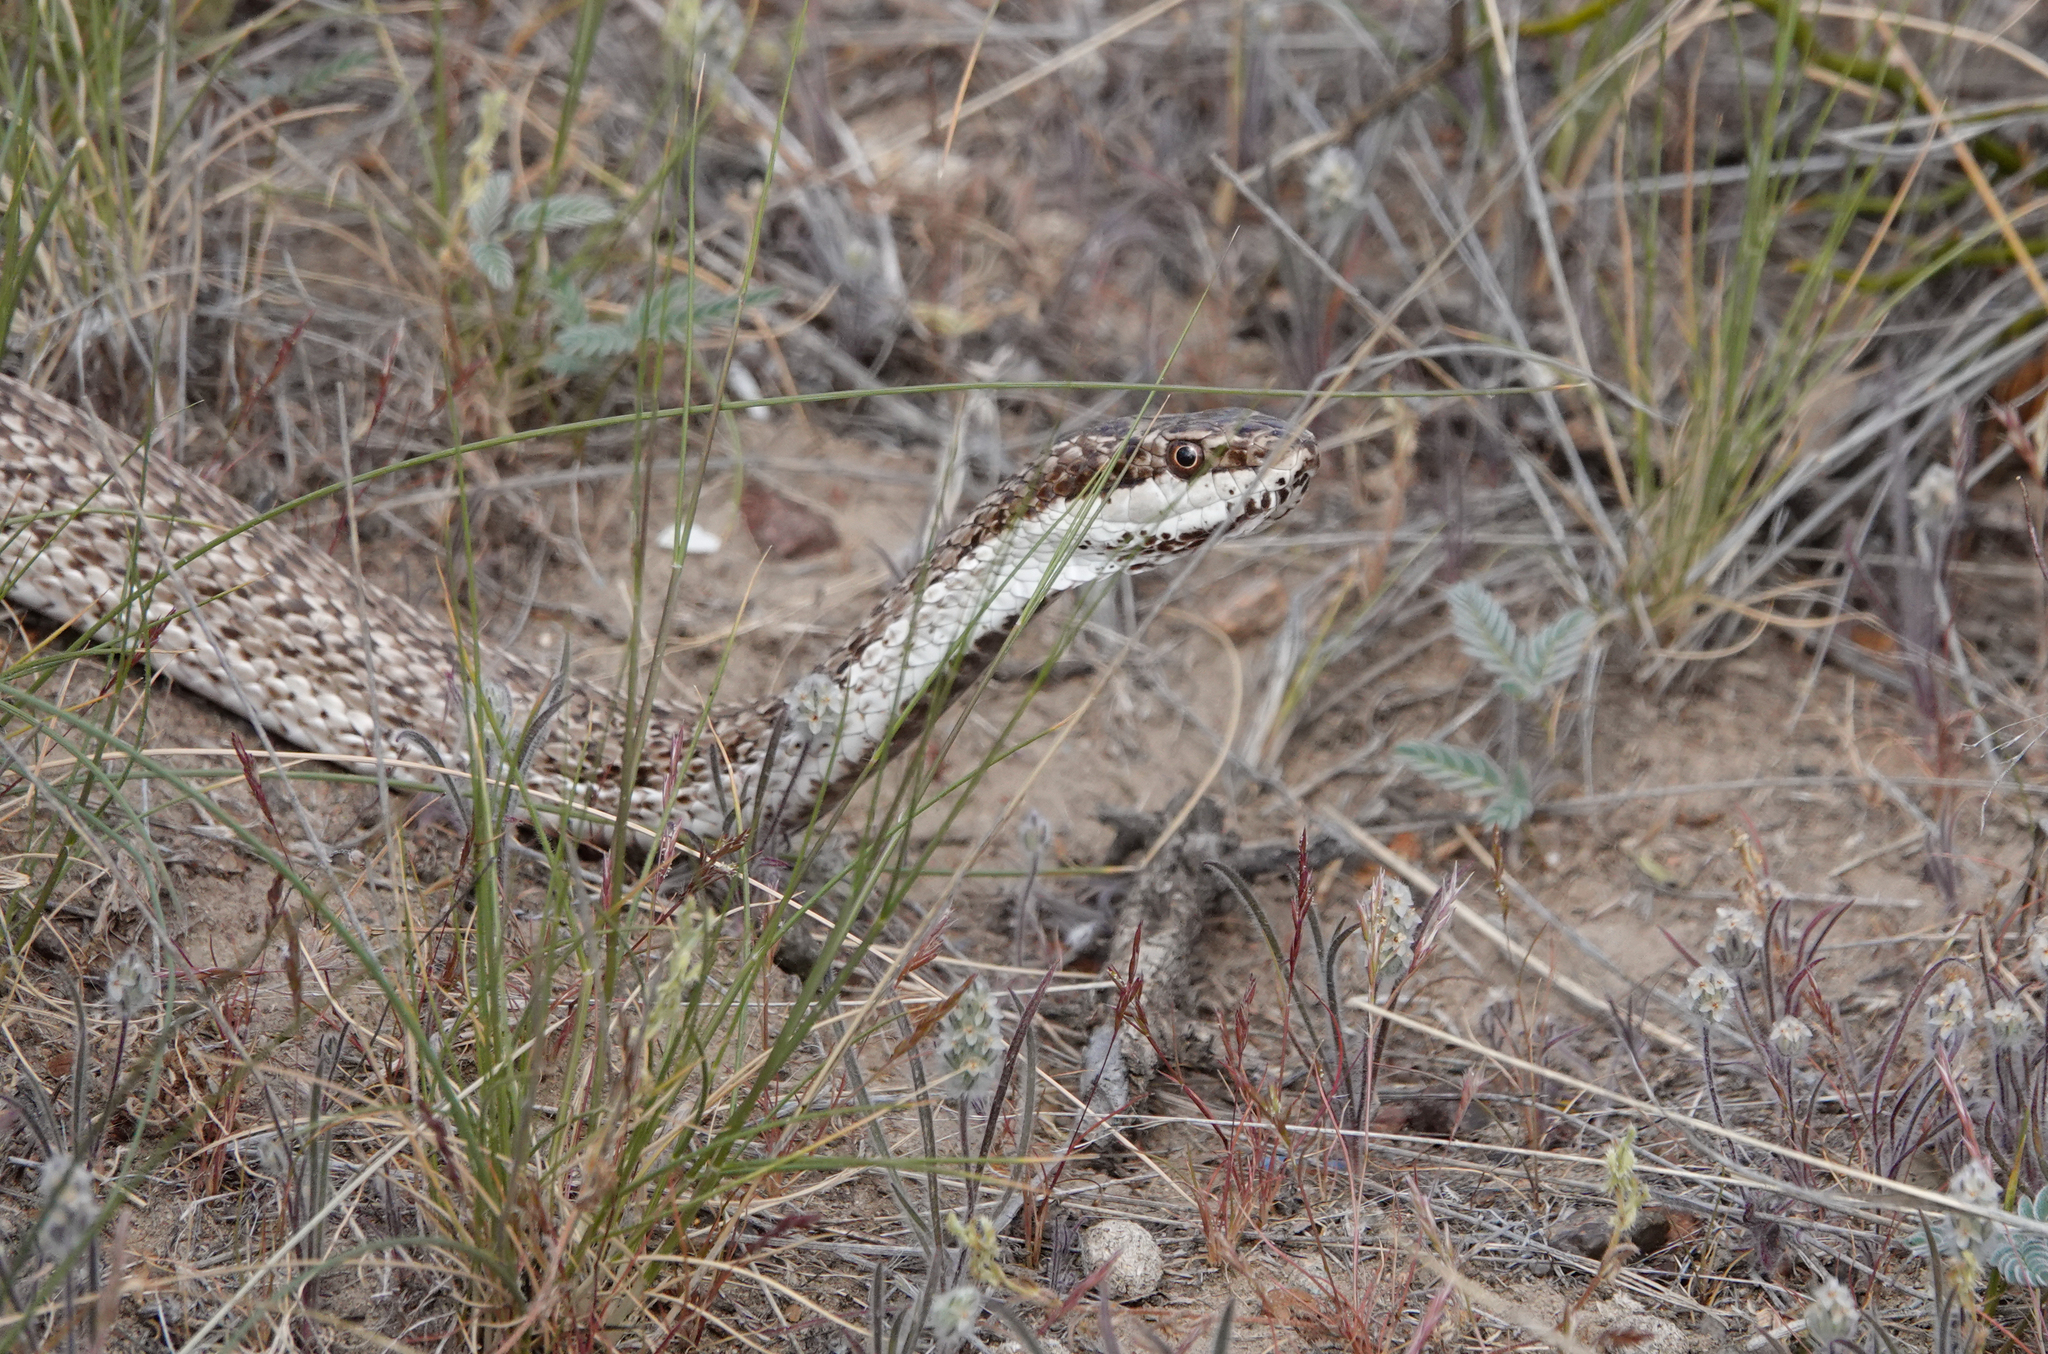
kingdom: Animalia
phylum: Chordata
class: Squamata
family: Colubridae
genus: Philodryas
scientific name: Philodryas trilineata
